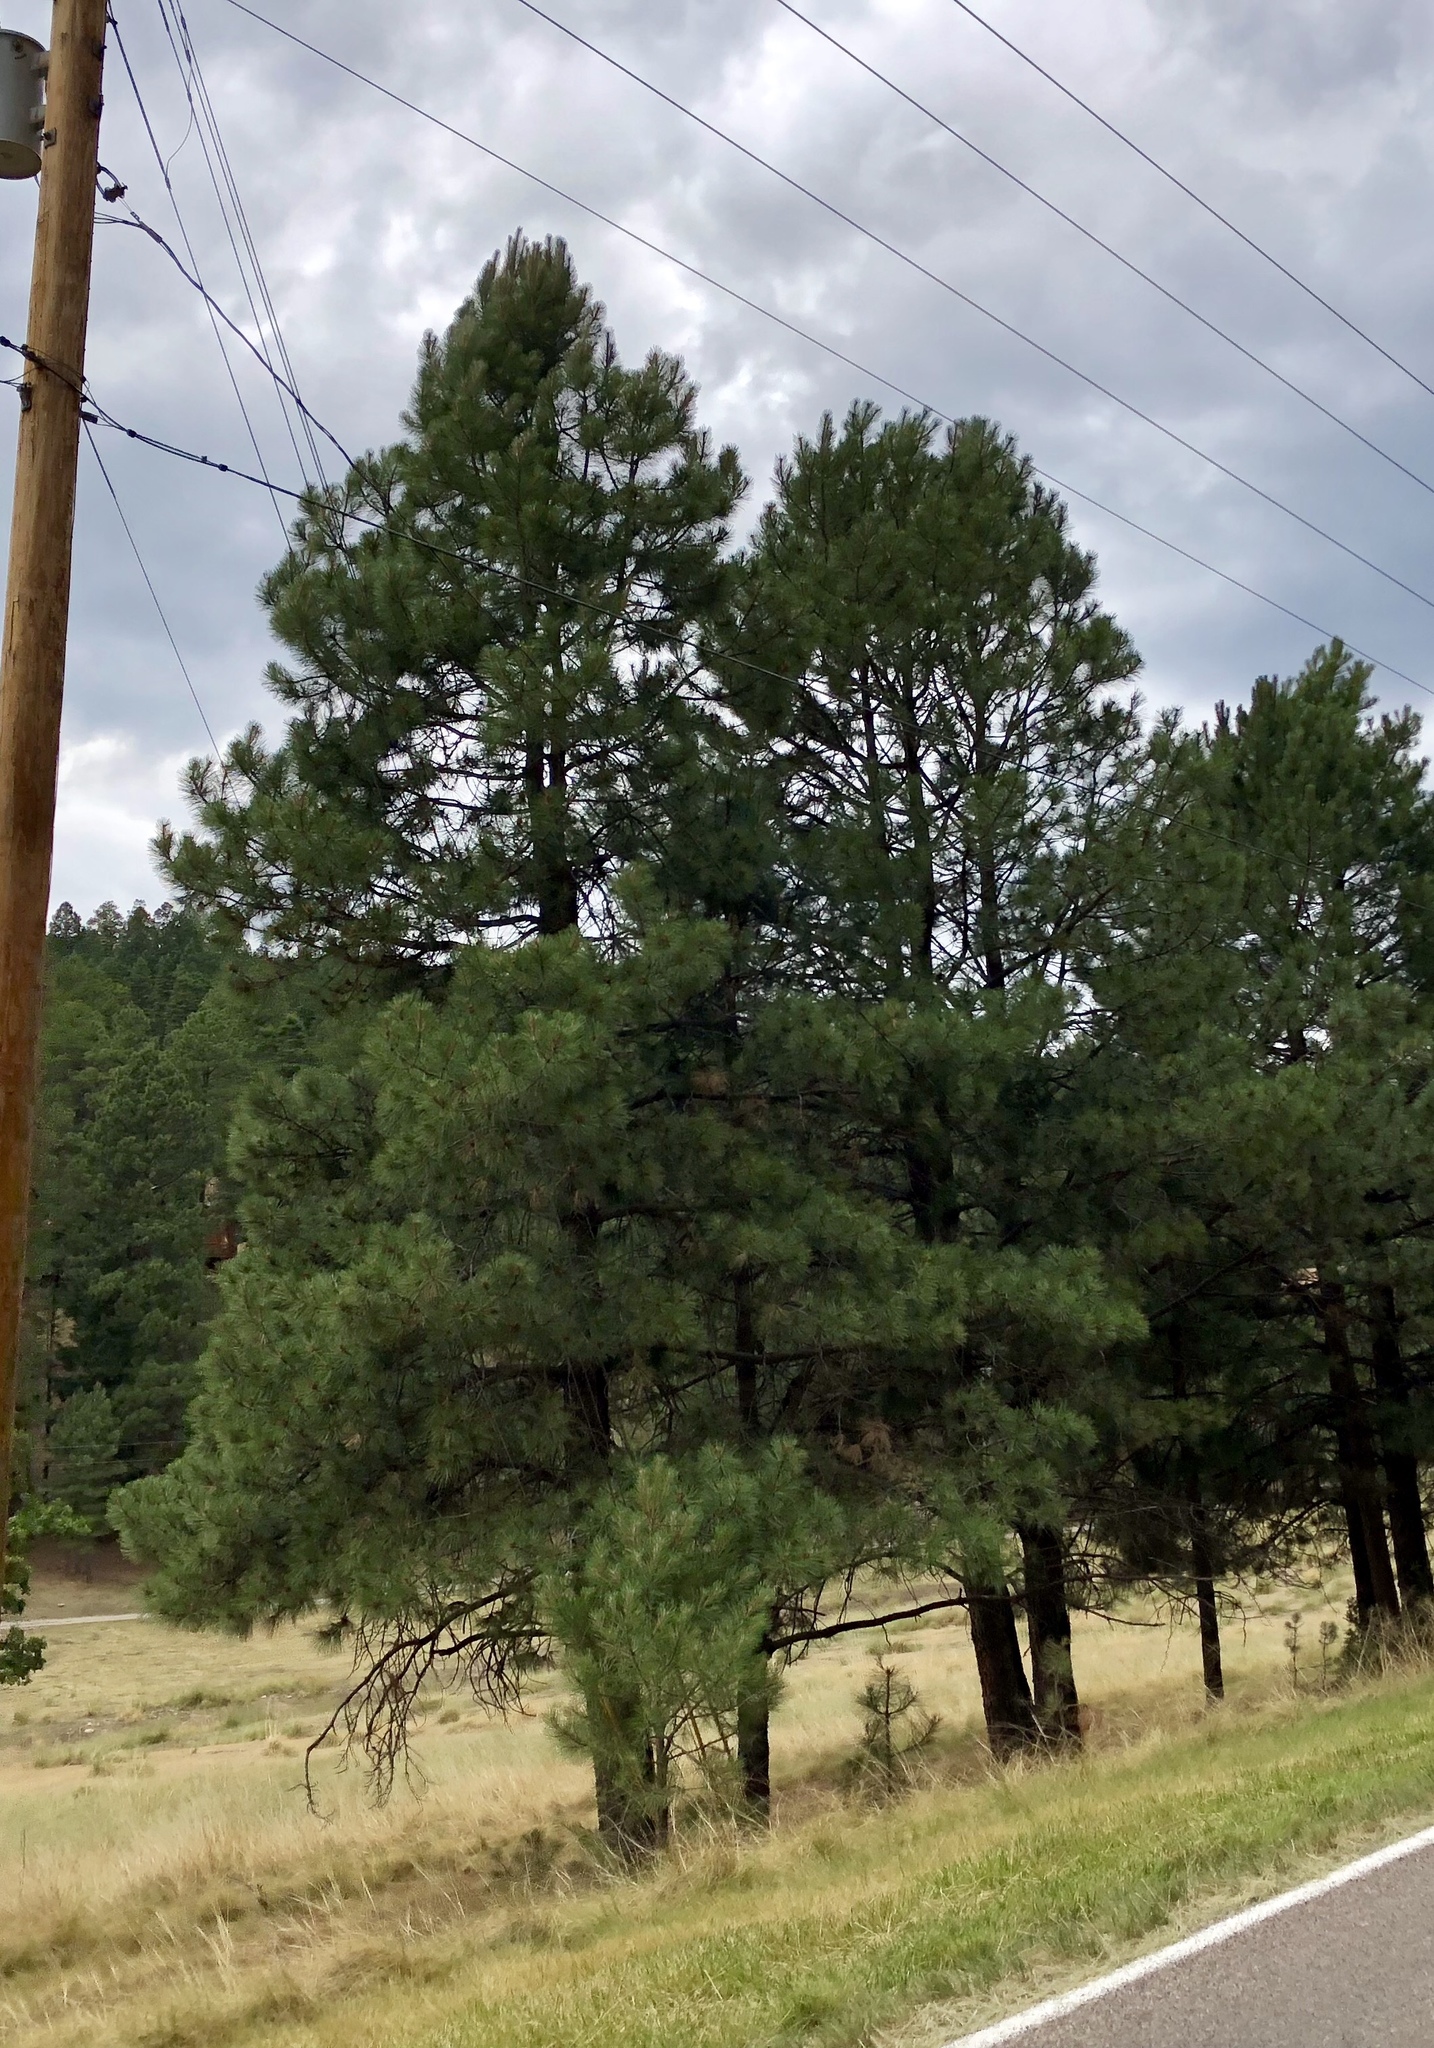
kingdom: Plantae
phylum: Tracheophyta
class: Pinopsida
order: Pinales
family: Pinaceae
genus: Pinus
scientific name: Pinus ponderosa
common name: Western yellow-pine
